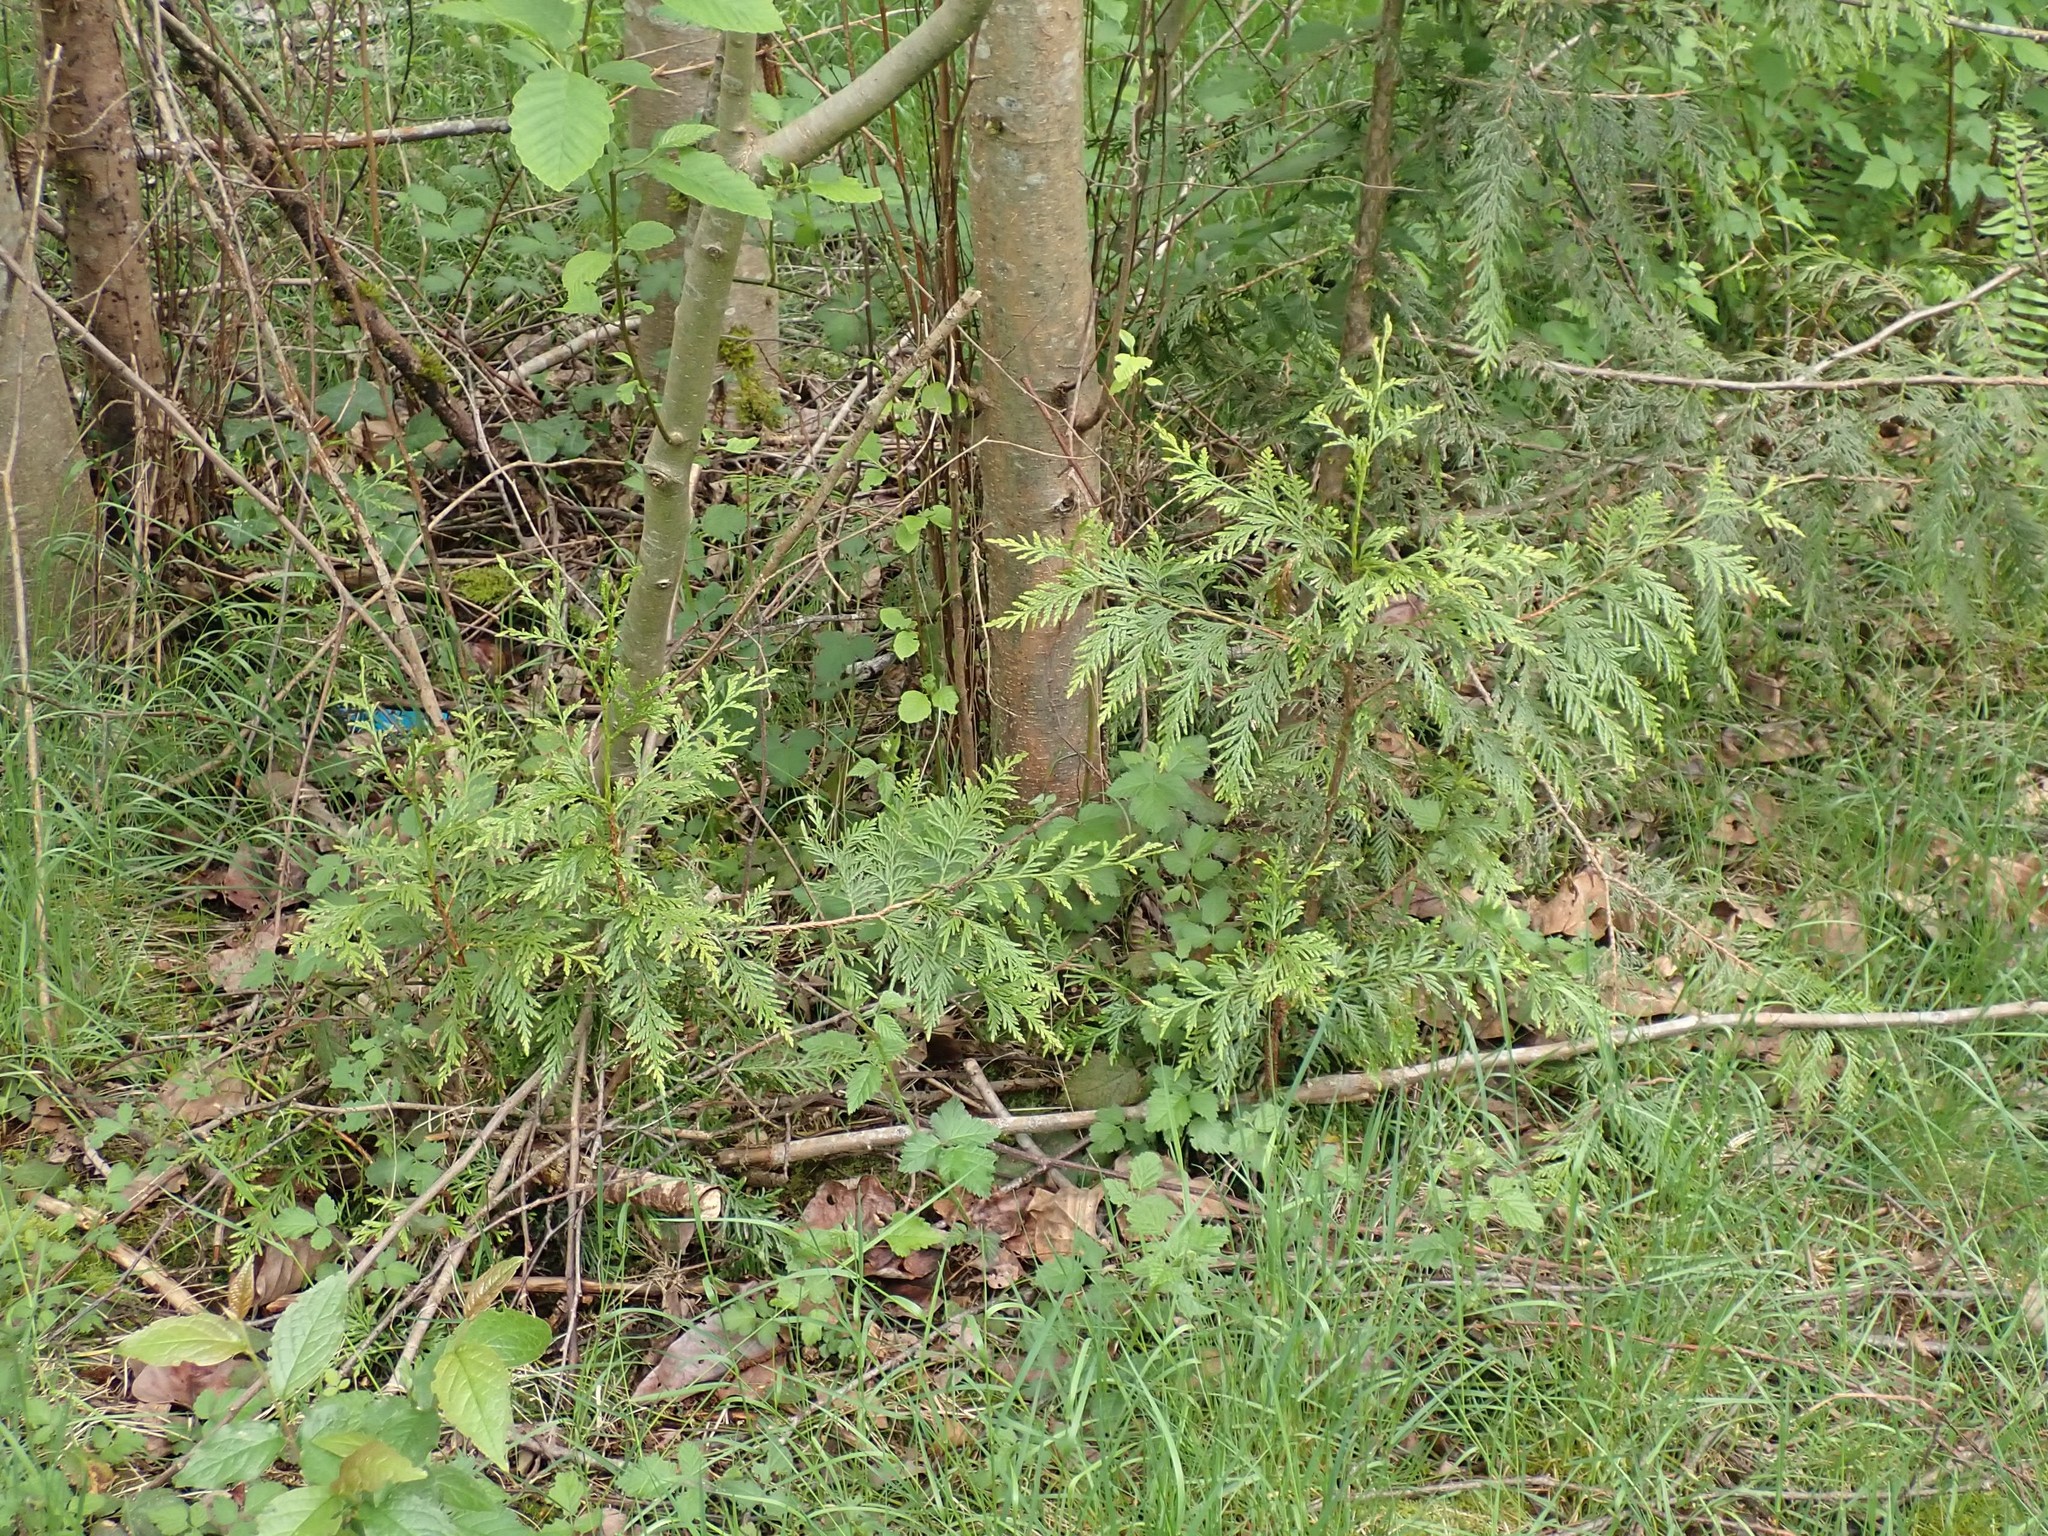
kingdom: Plantae
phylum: Tracheophyta
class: Pinopsida
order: Pinales
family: Cupressaceae
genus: Thuja
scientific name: Thuja plicata
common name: Western red-cedar
